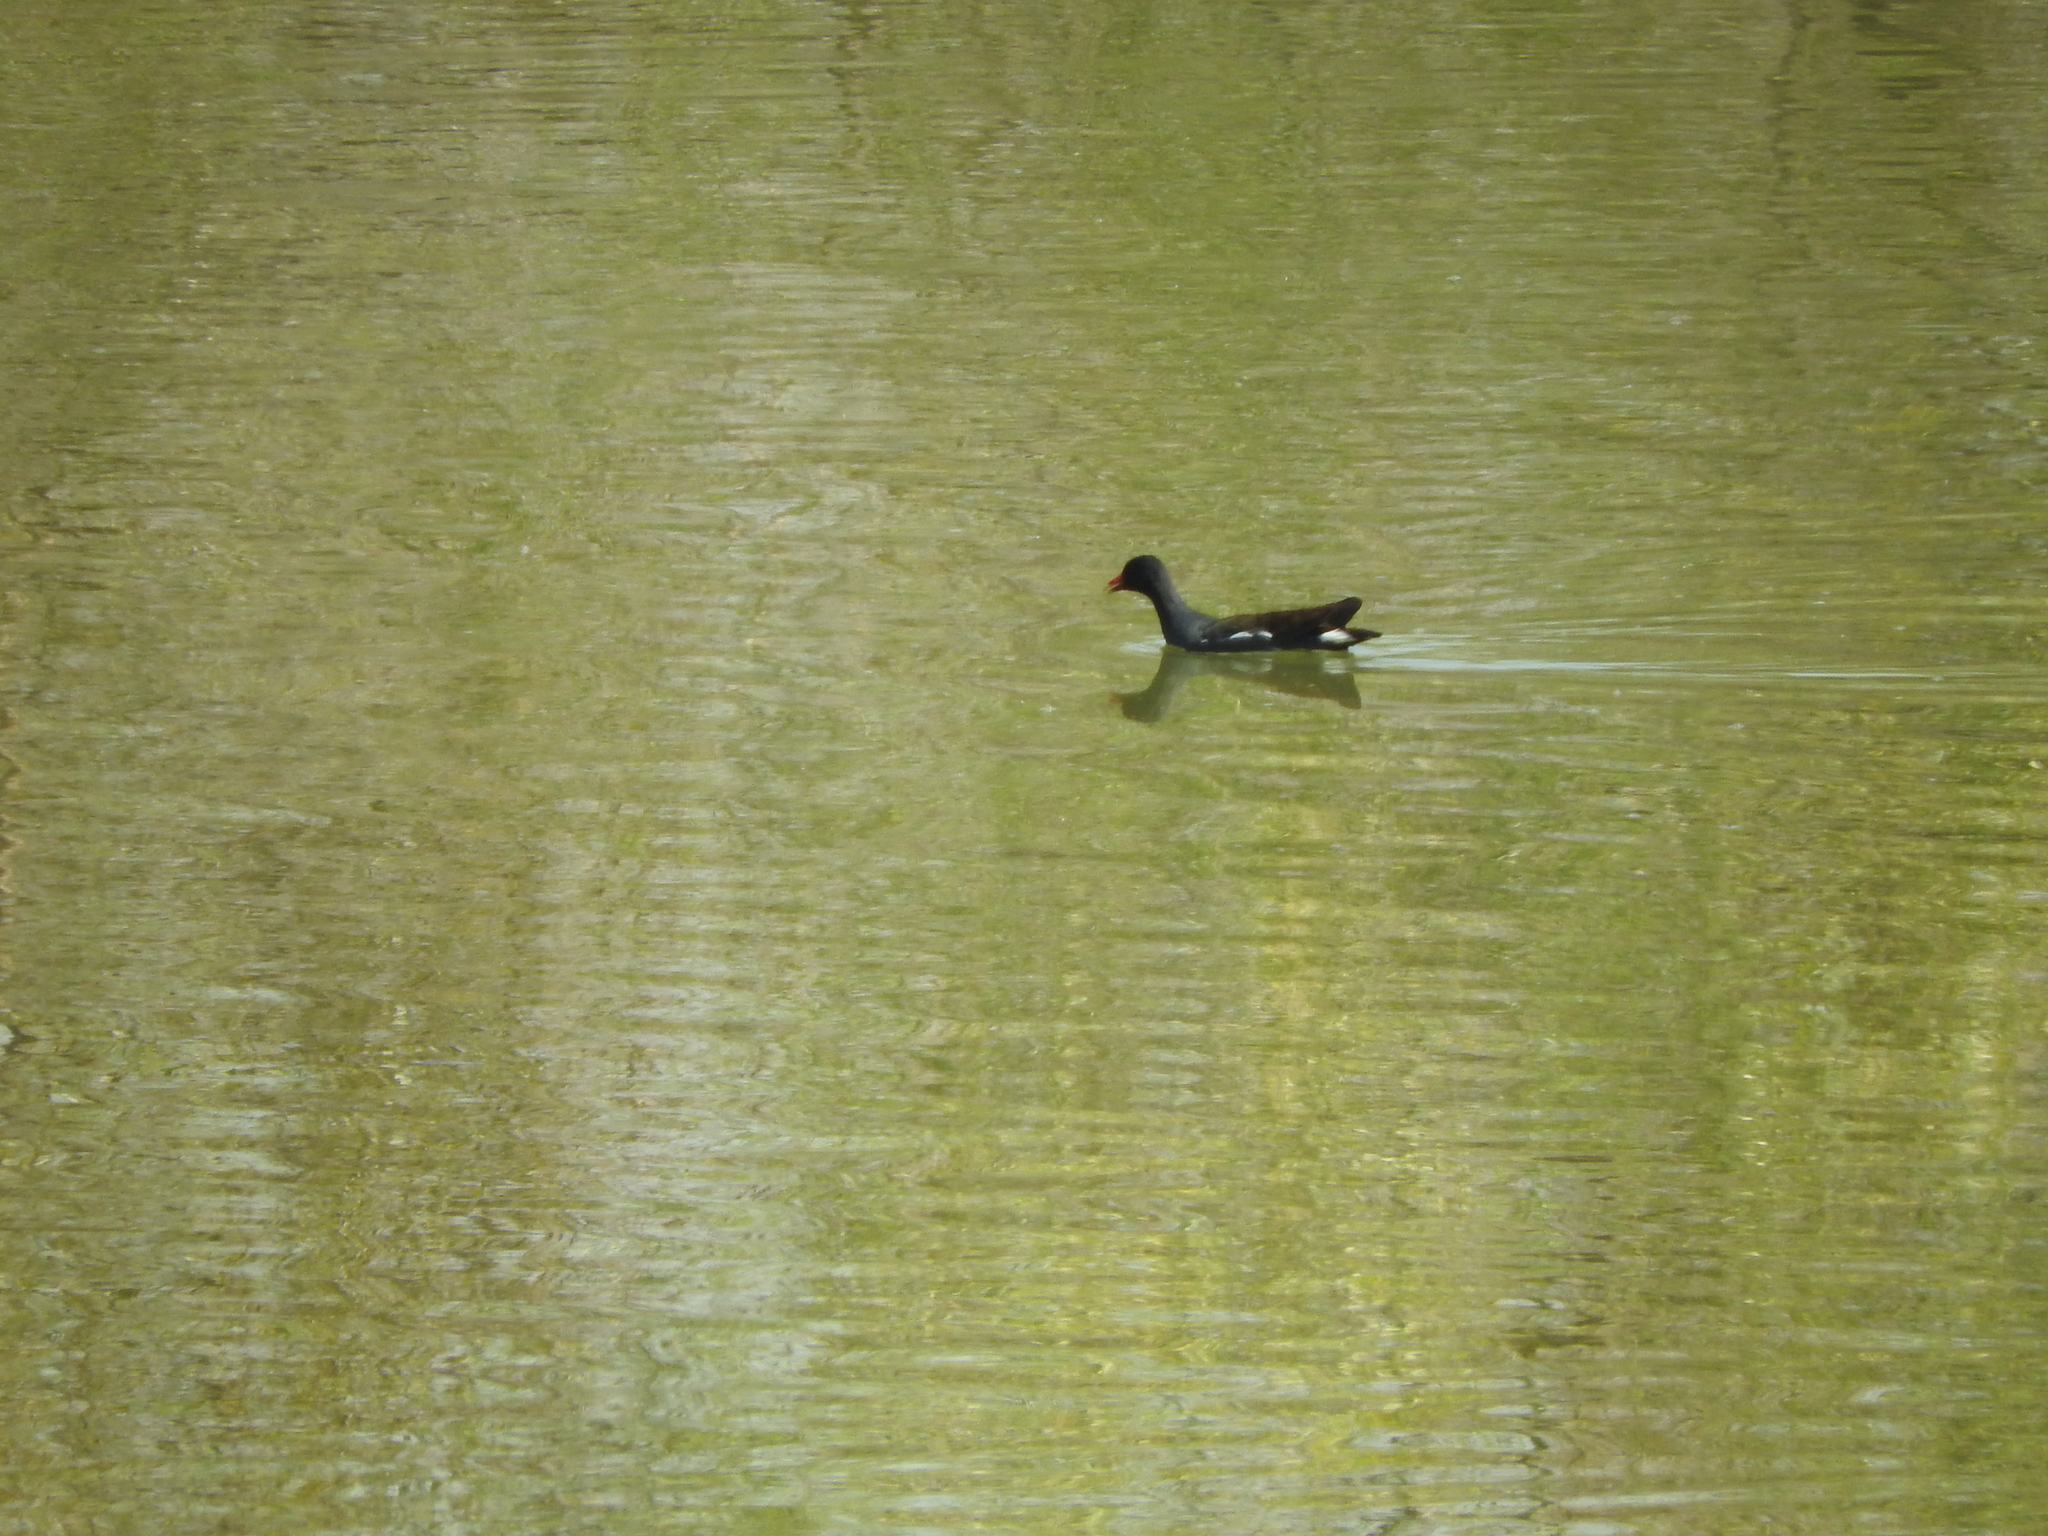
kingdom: Animalia
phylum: Chordata
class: Aves
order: Gruiformes
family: Rallidae
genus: Gallinula
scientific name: Gallinula chloropus
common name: Common moorhen
